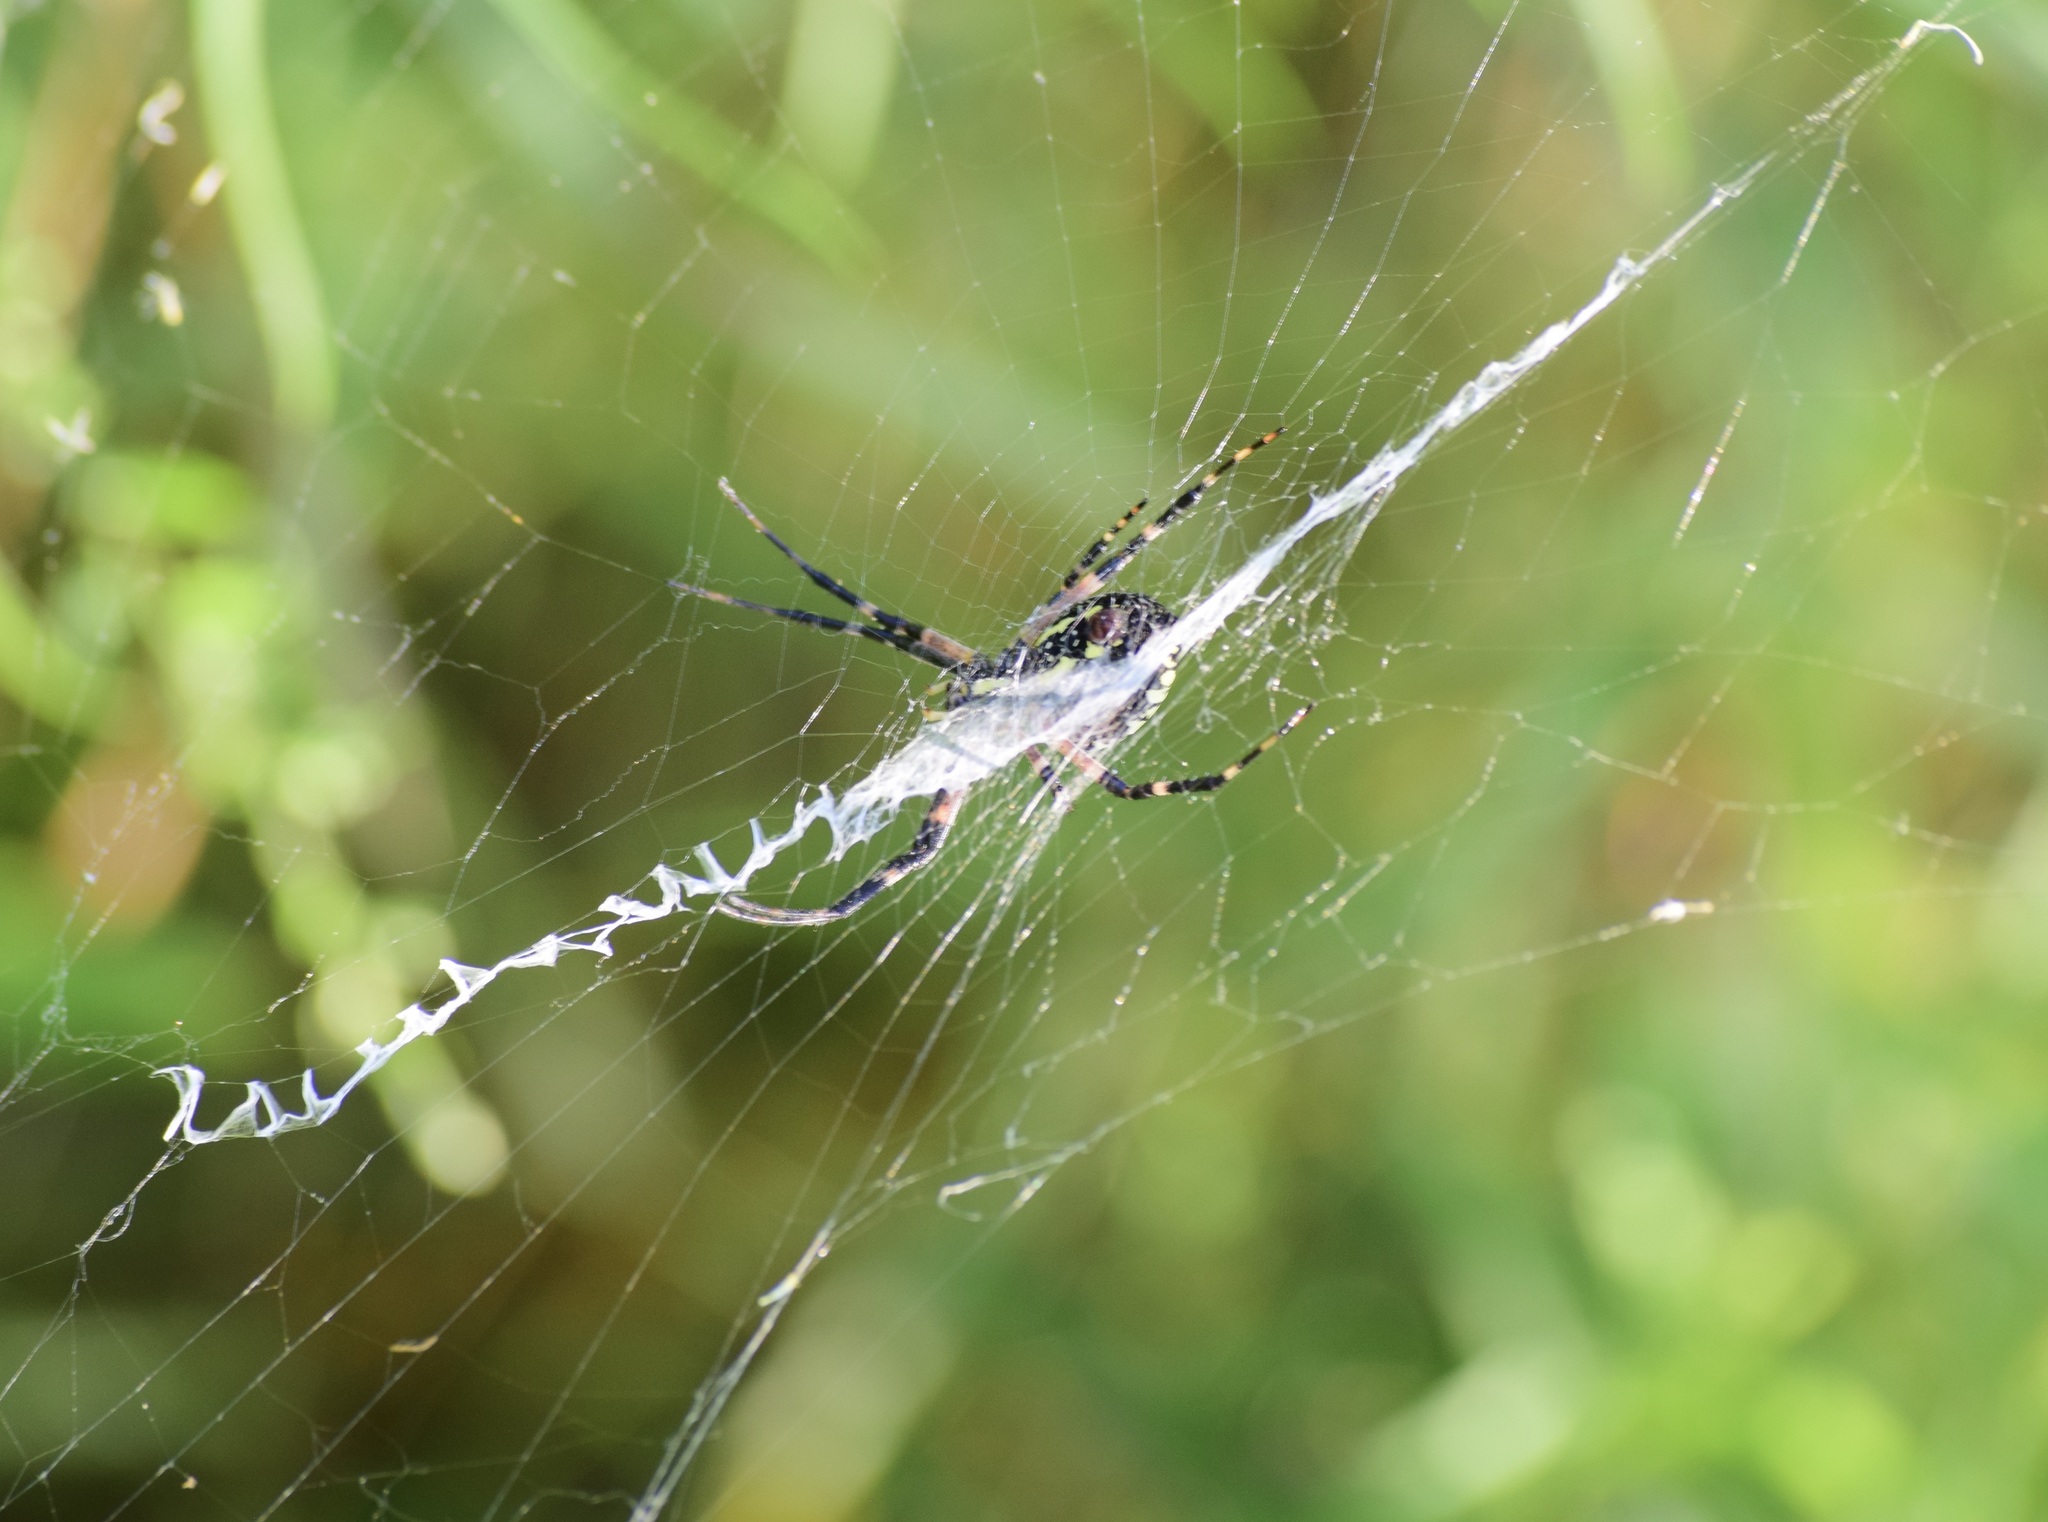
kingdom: Animalia
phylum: Arthropoda
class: Arachnida
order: Araneae
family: Araneidae
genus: Argiope
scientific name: Argiope aurantia
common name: Orb weavers
